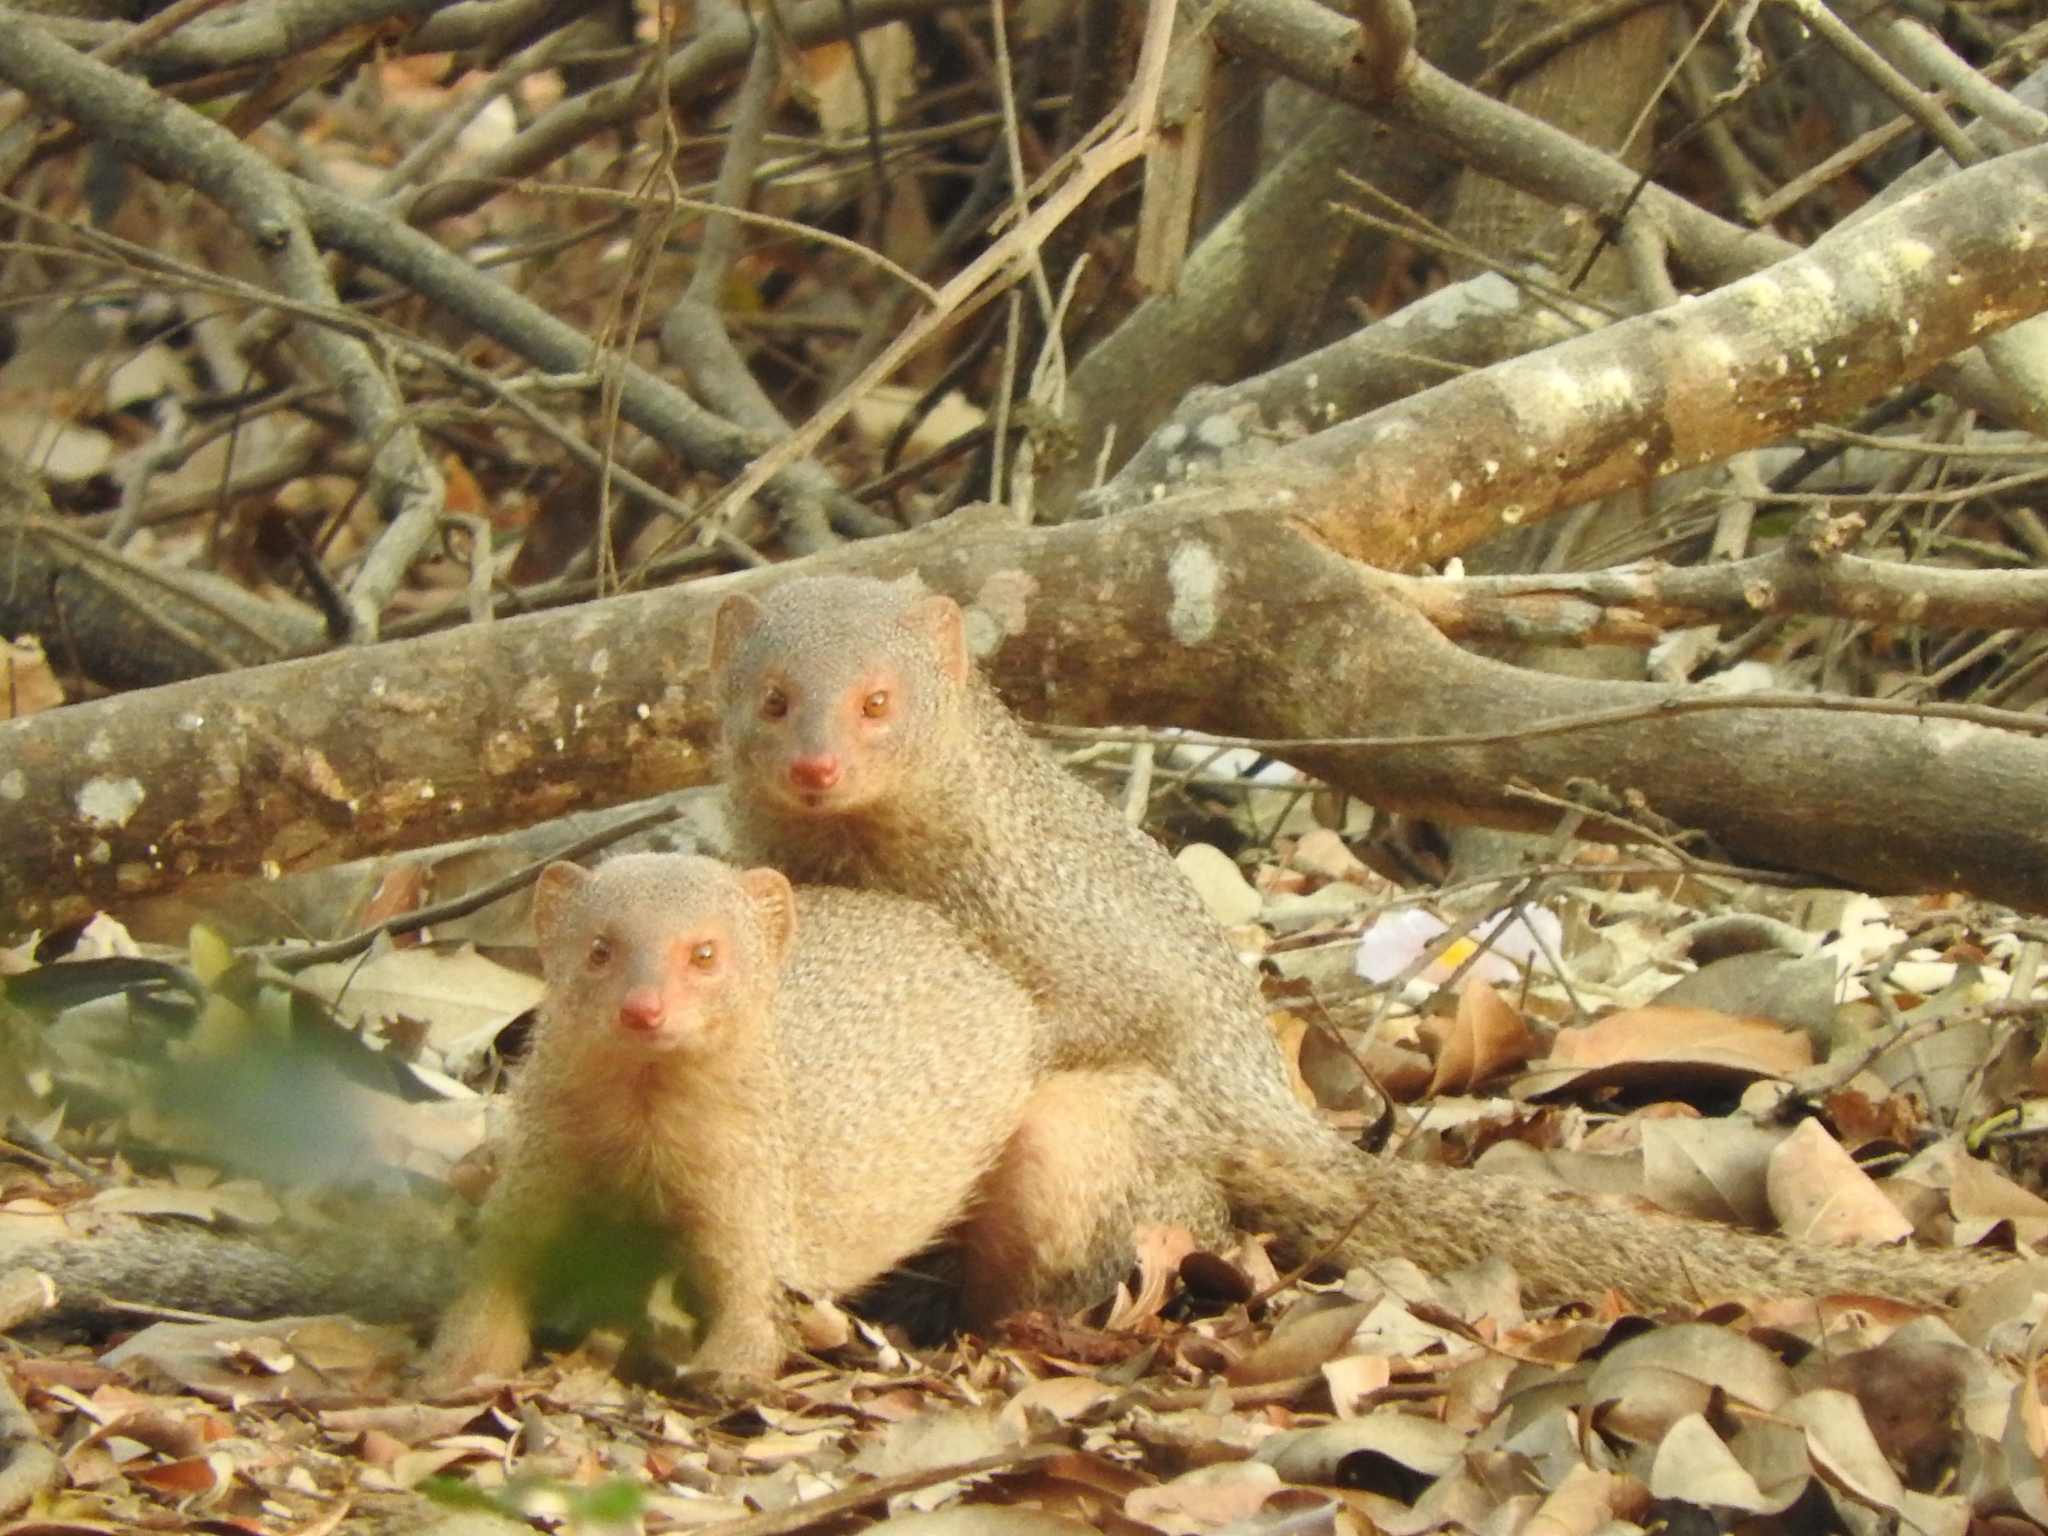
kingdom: Animalia
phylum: Chordata
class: Mammalia
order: Carnivora
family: Herpestidae
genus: Herpestes
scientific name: Herpestes edwardsi
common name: Indian gray mongoose
